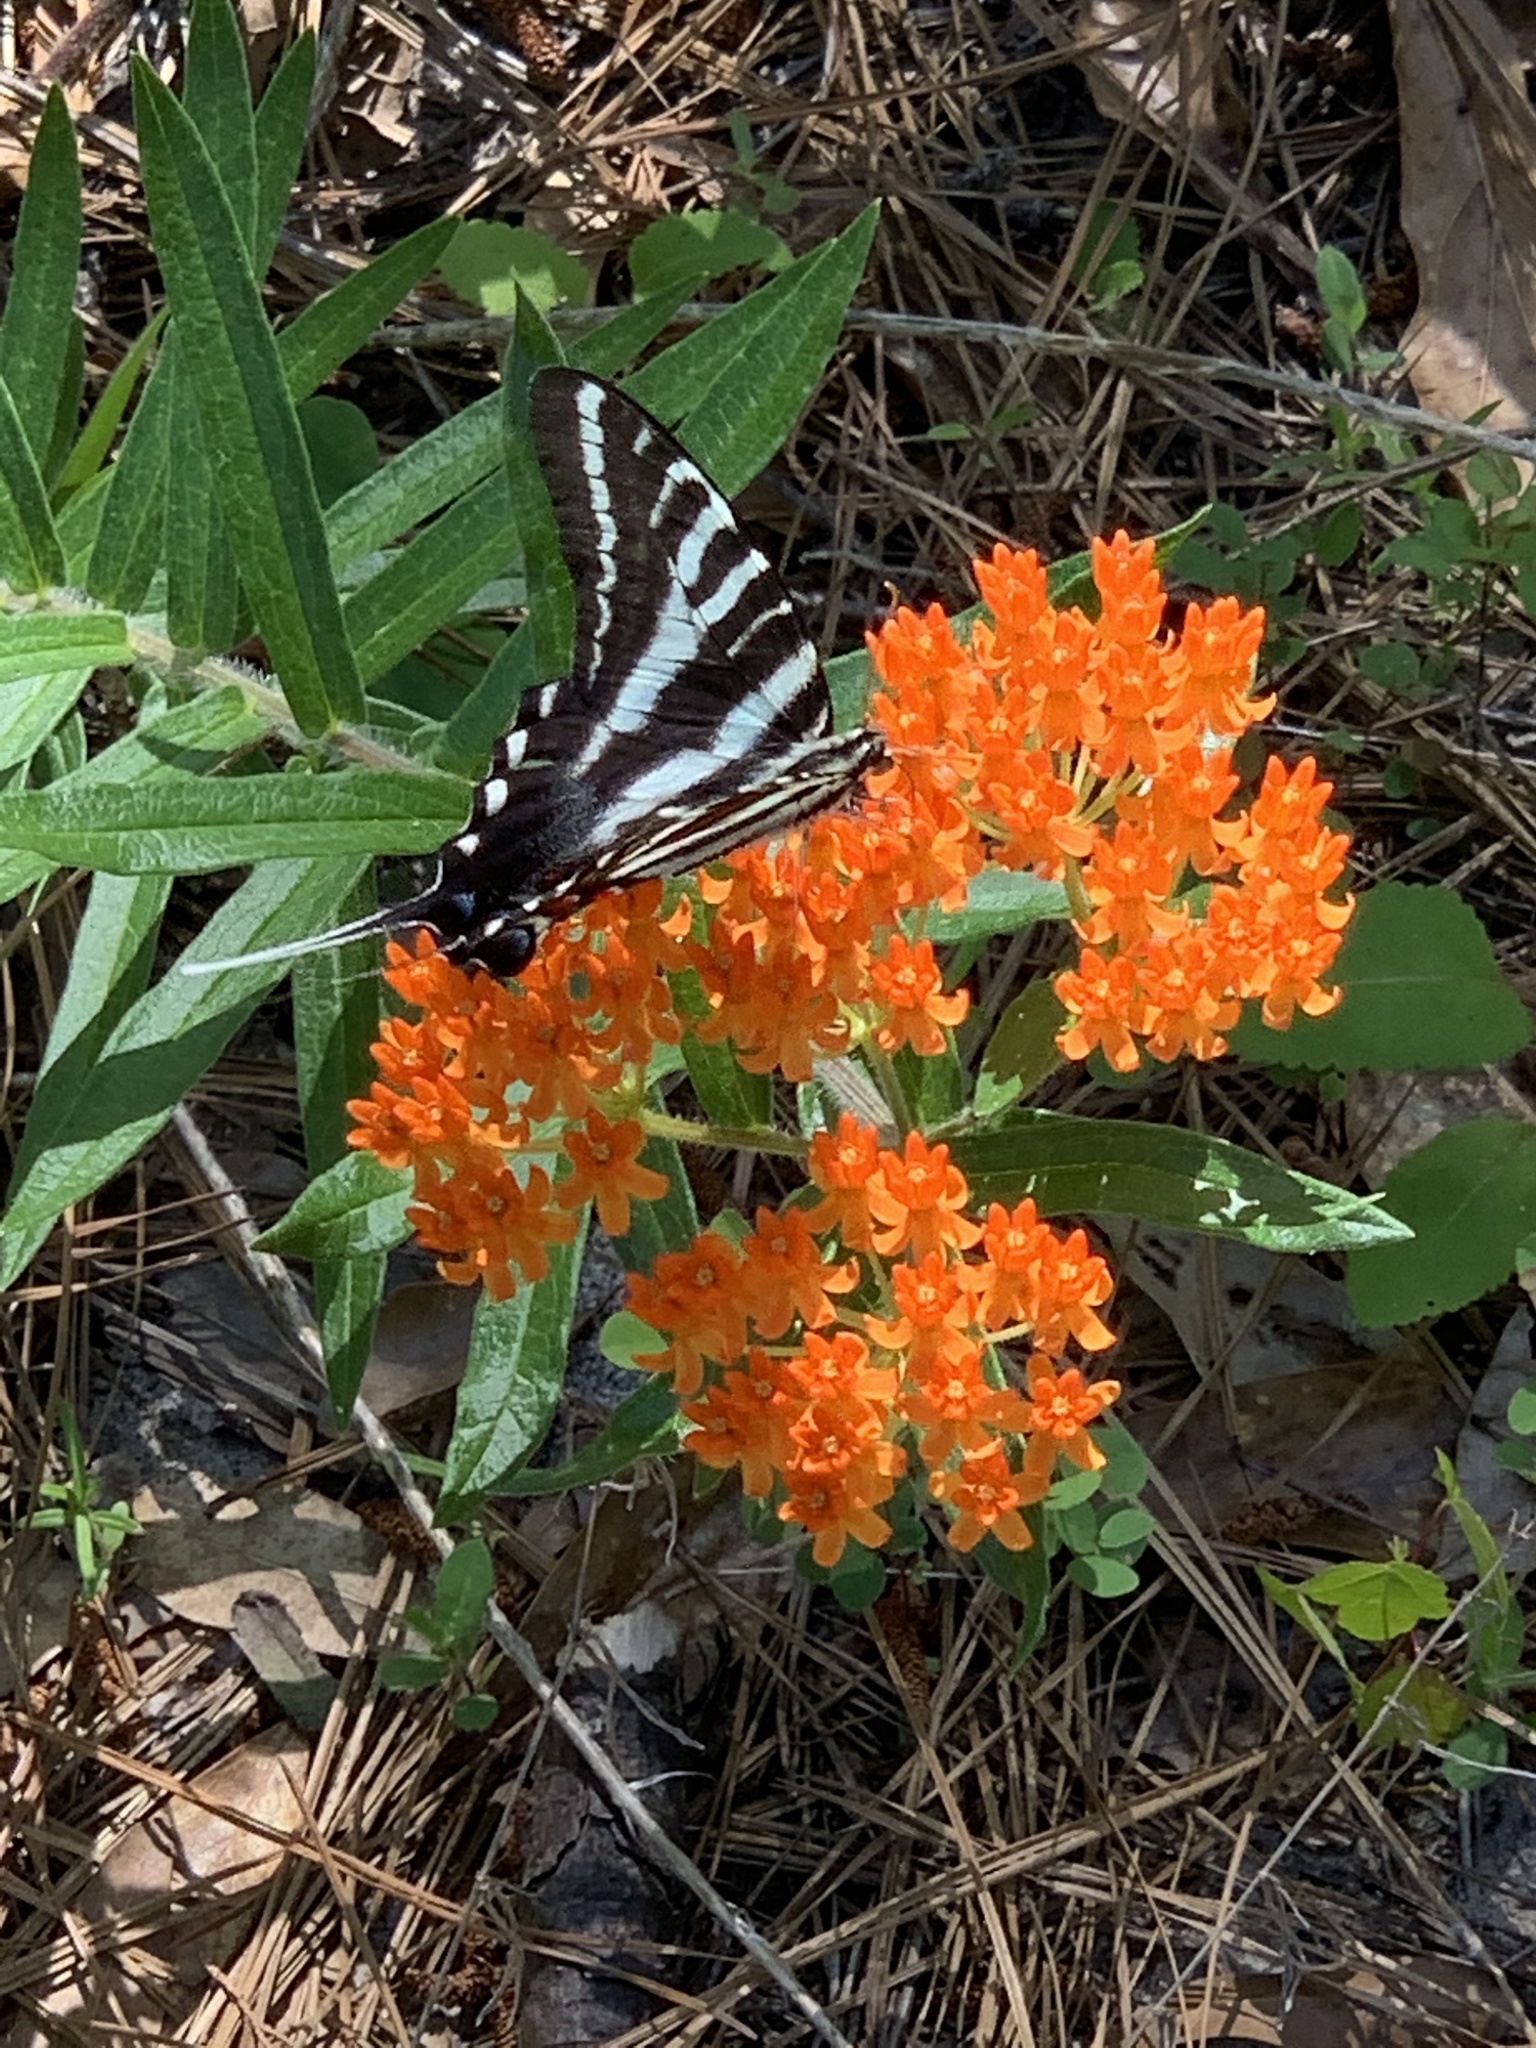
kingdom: Animalia
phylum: Arthropoda
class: Insecta
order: Lepidoptera
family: Papilionidae
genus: Protographium
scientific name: Protographium marcellus
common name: Zebra swallowtail
